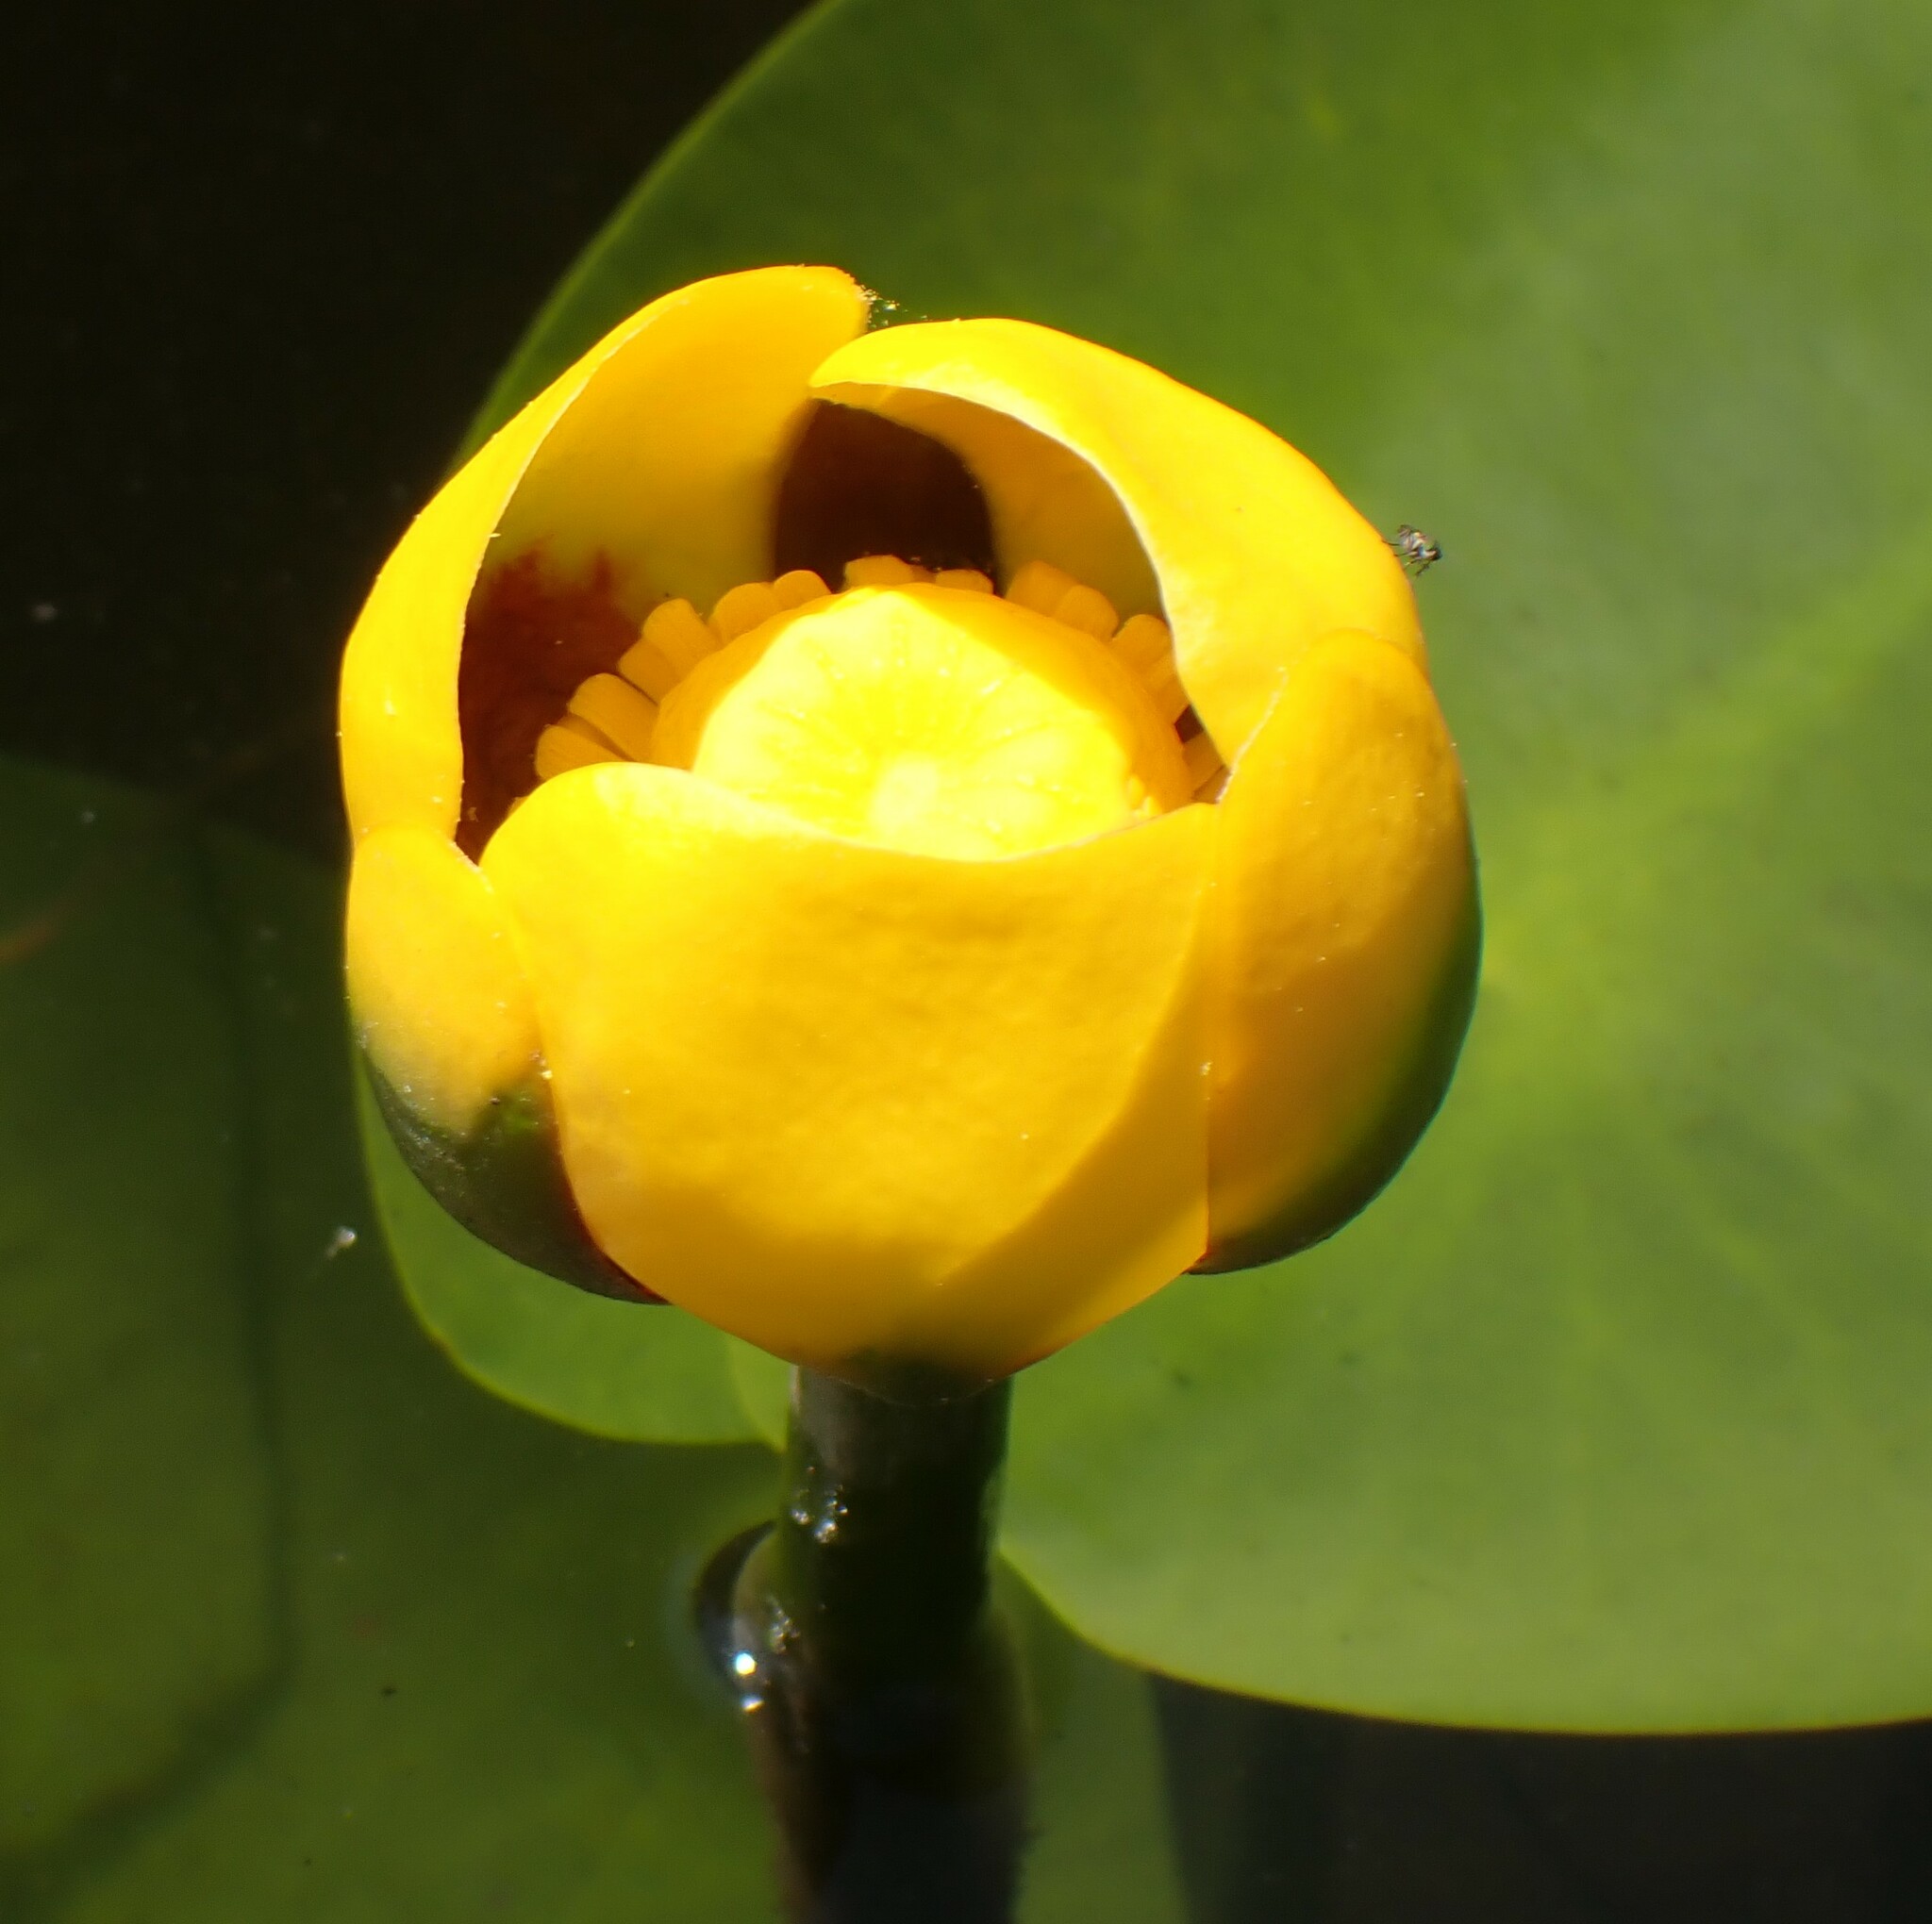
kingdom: Plantae
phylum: Tracheophyta
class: Magnoliopsida
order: Nymphaeales
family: Nymphaeaceae
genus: Nuphar
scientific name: Nuphar variegata
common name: Beaver-root
